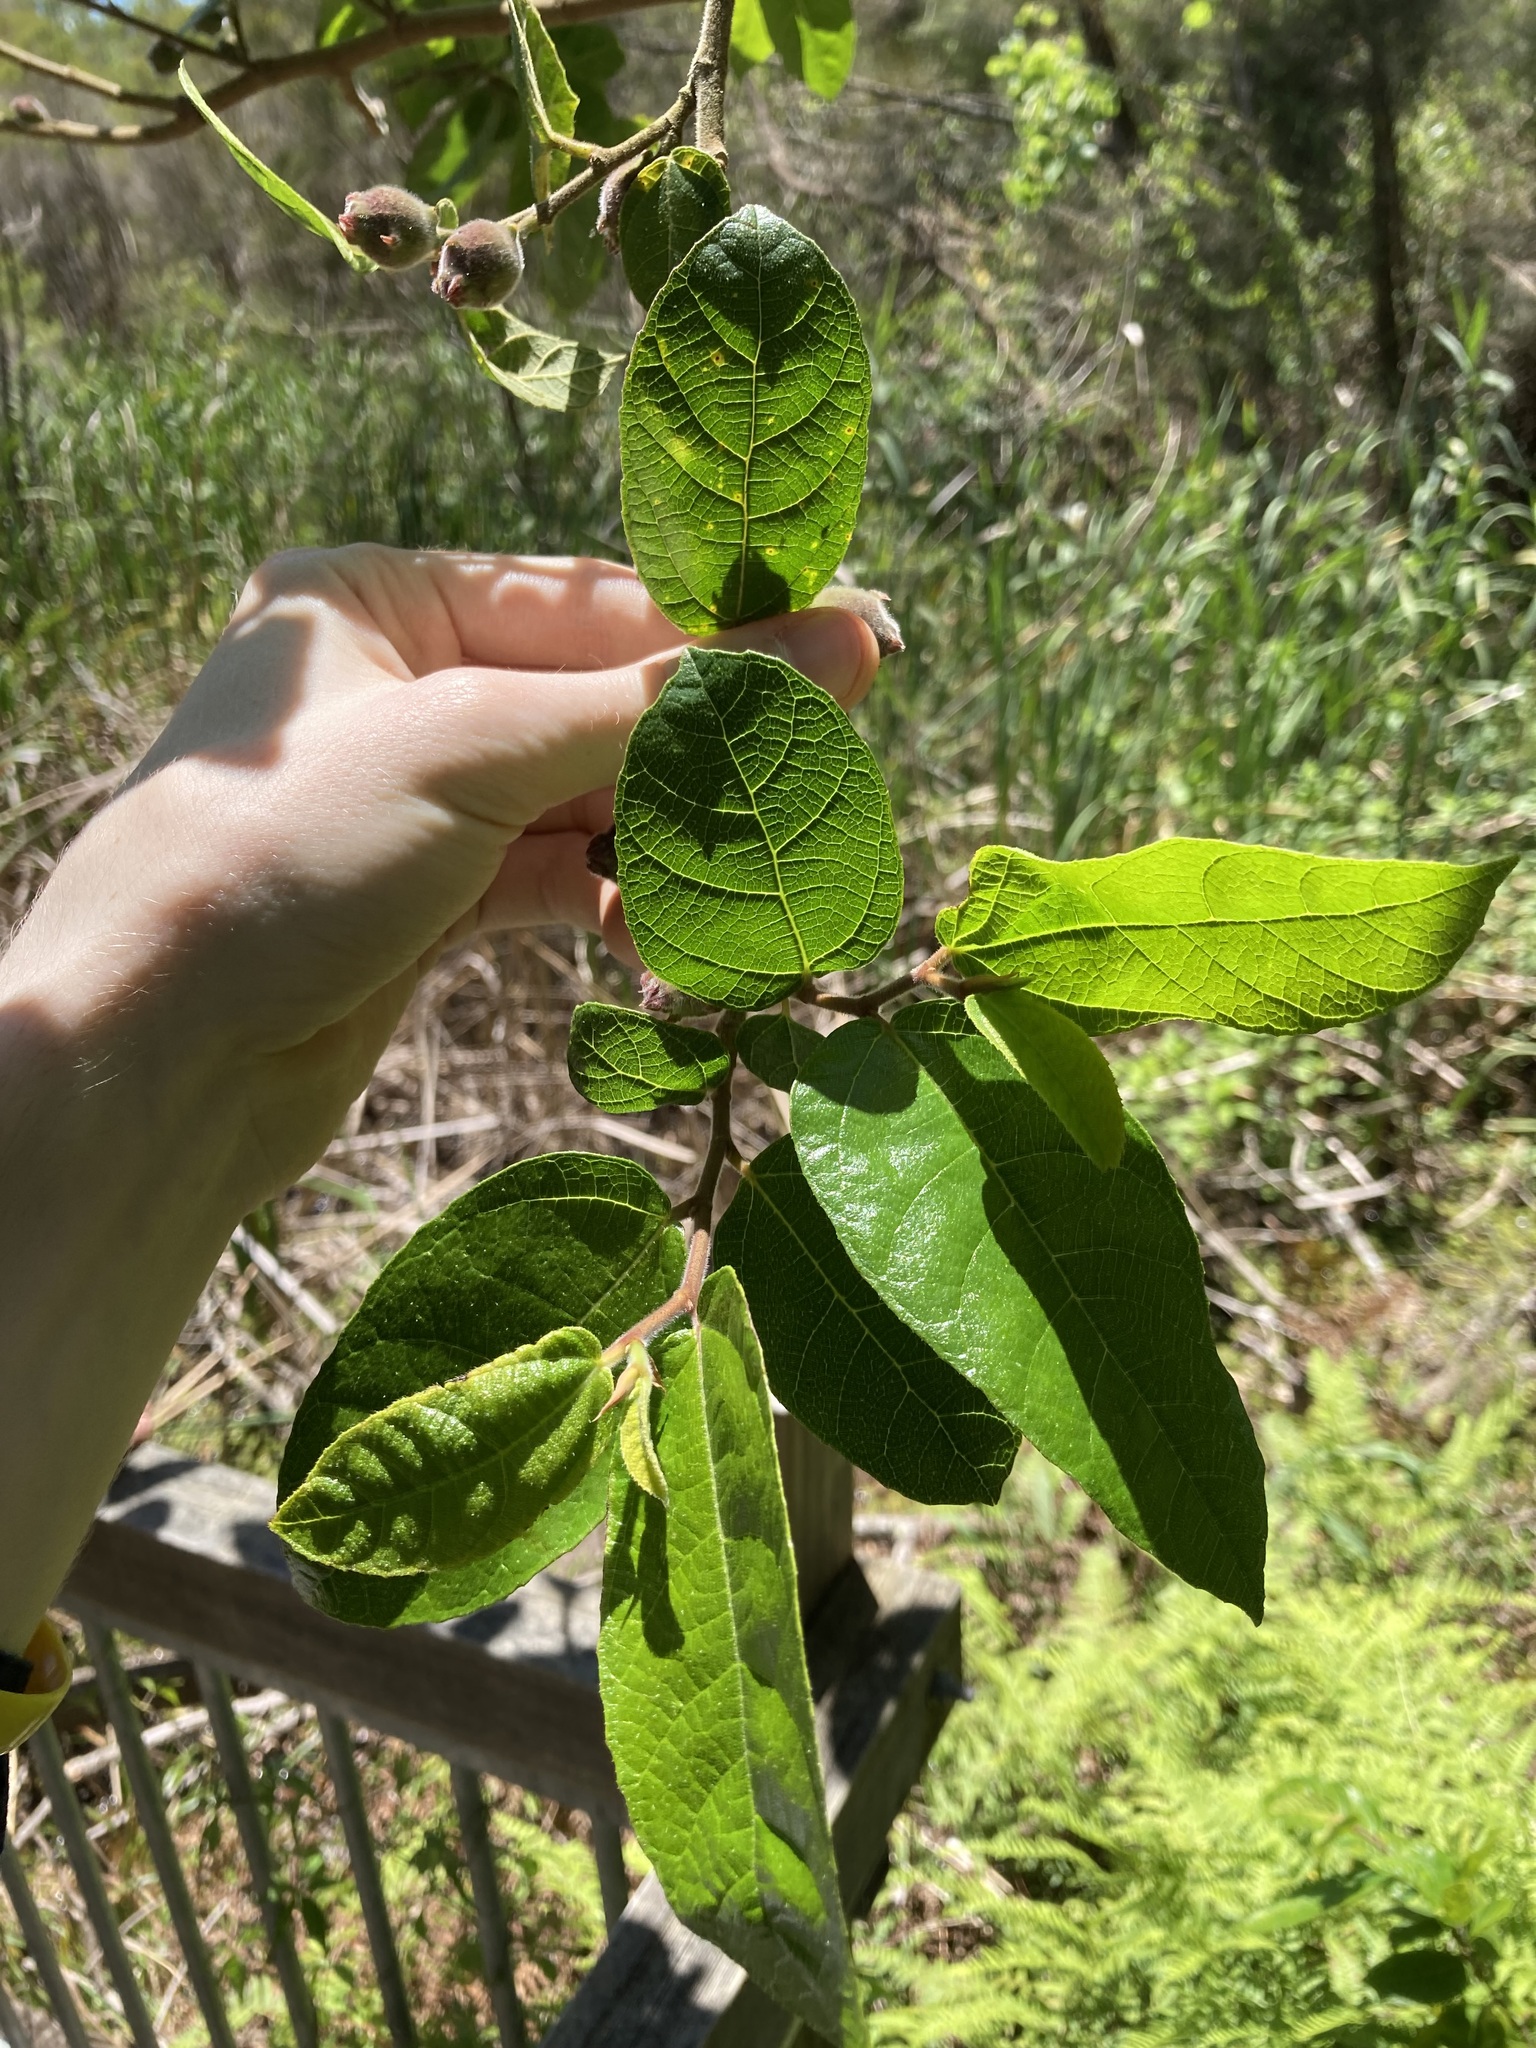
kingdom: Plantae
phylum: Tracheophyta
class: Magnoliopsida
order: Rosales
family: Moraceae
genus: Ficus
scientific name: Ficus coronata
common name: Creek sandpaper fig
